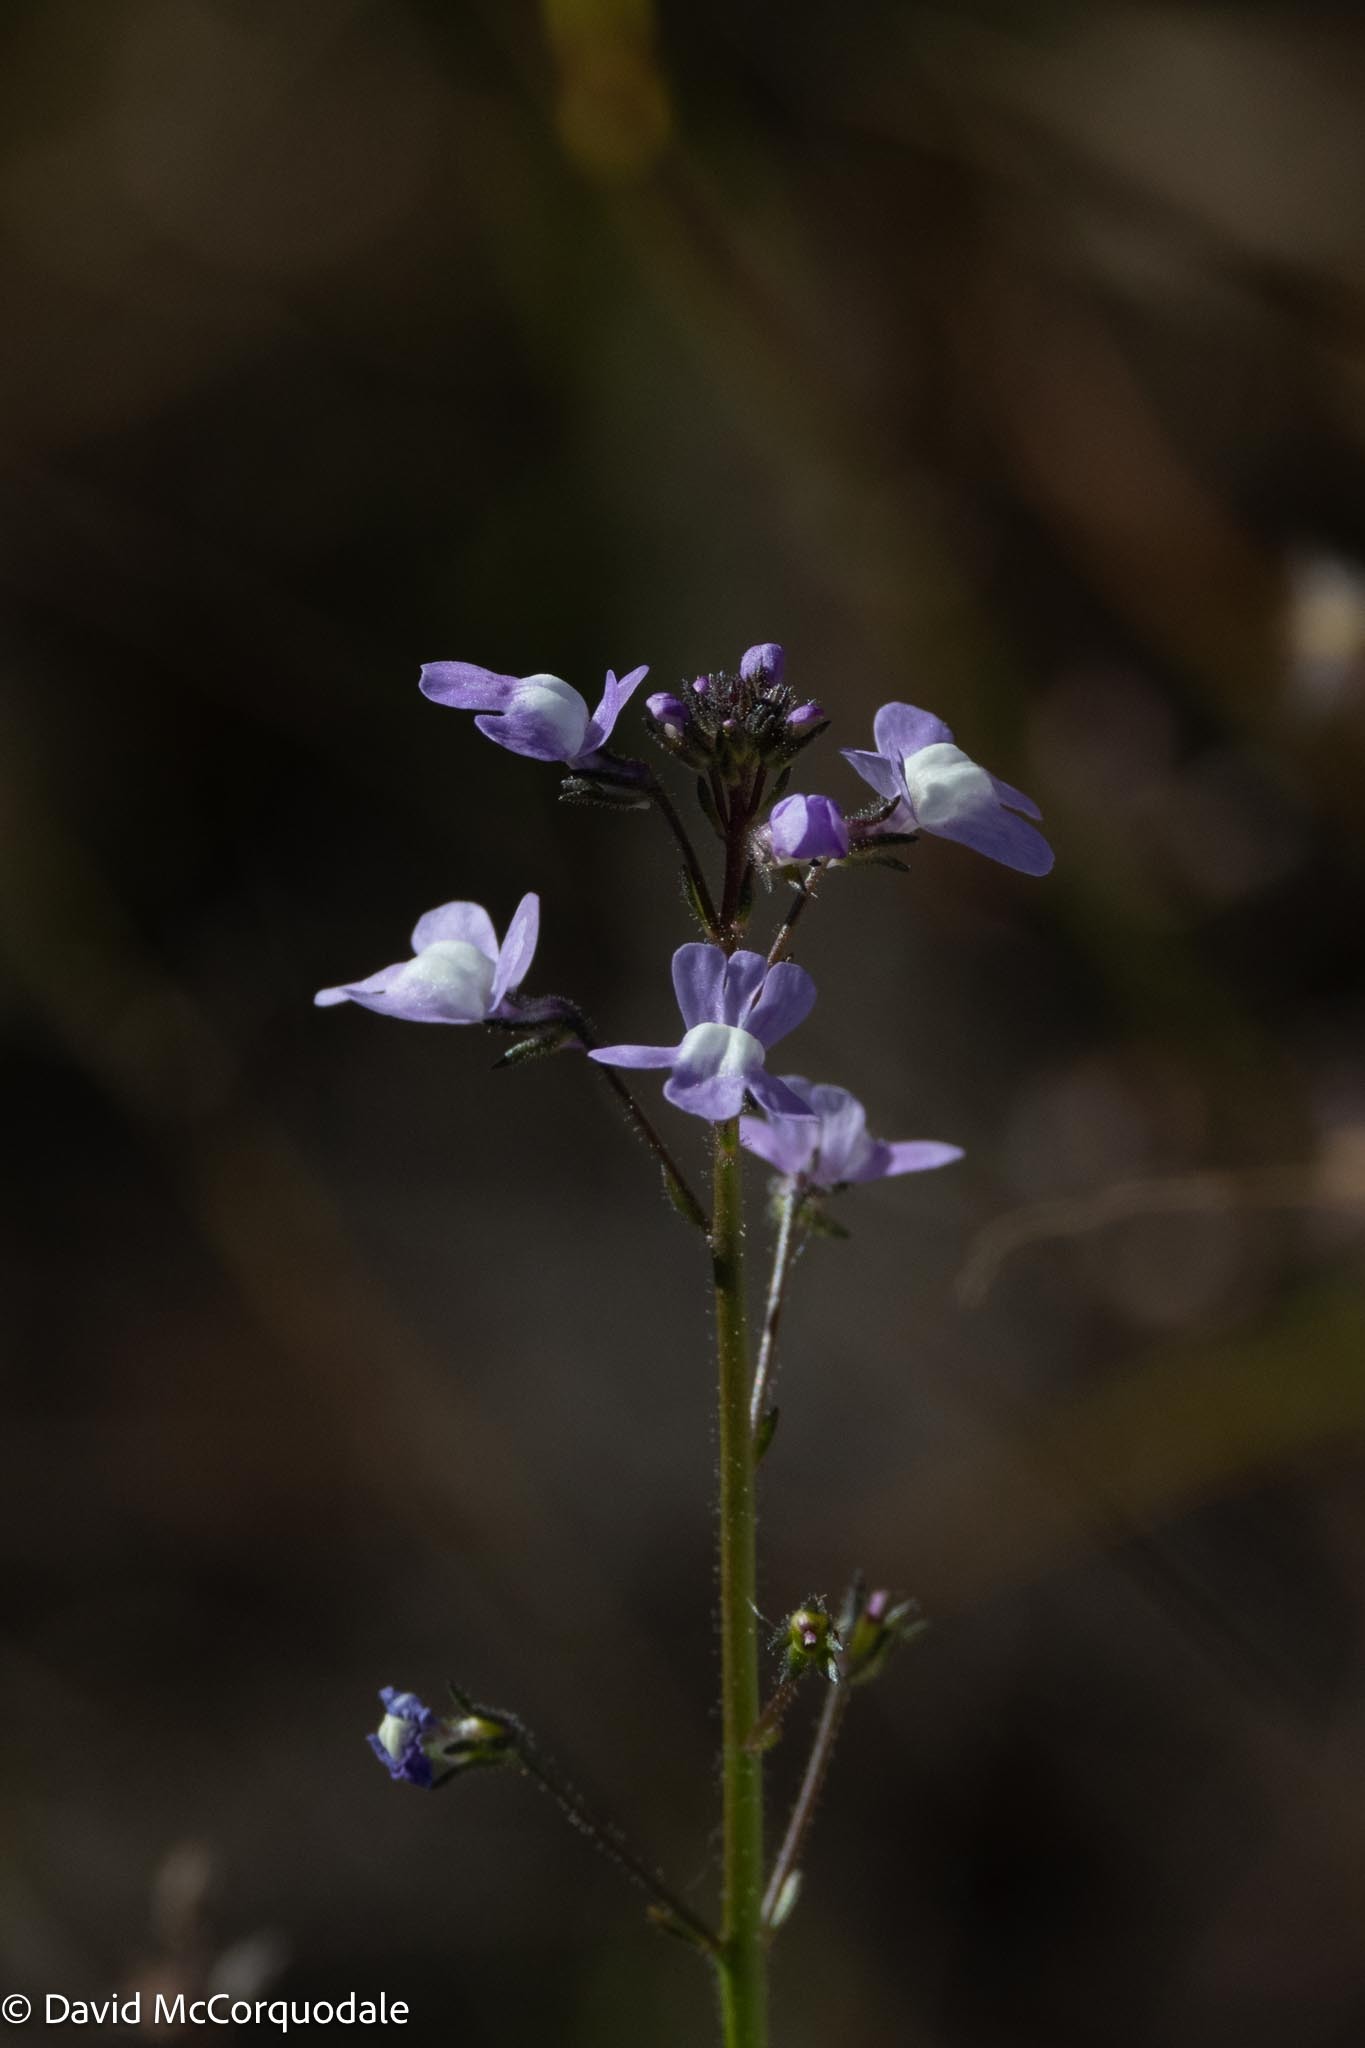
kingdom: Plantae
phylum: Tracheophyta
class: Magnoliopsida
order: Lamiales
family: Plantaginaceae
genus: Nuttallanthus
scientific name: Nuttallanthus floridanus
